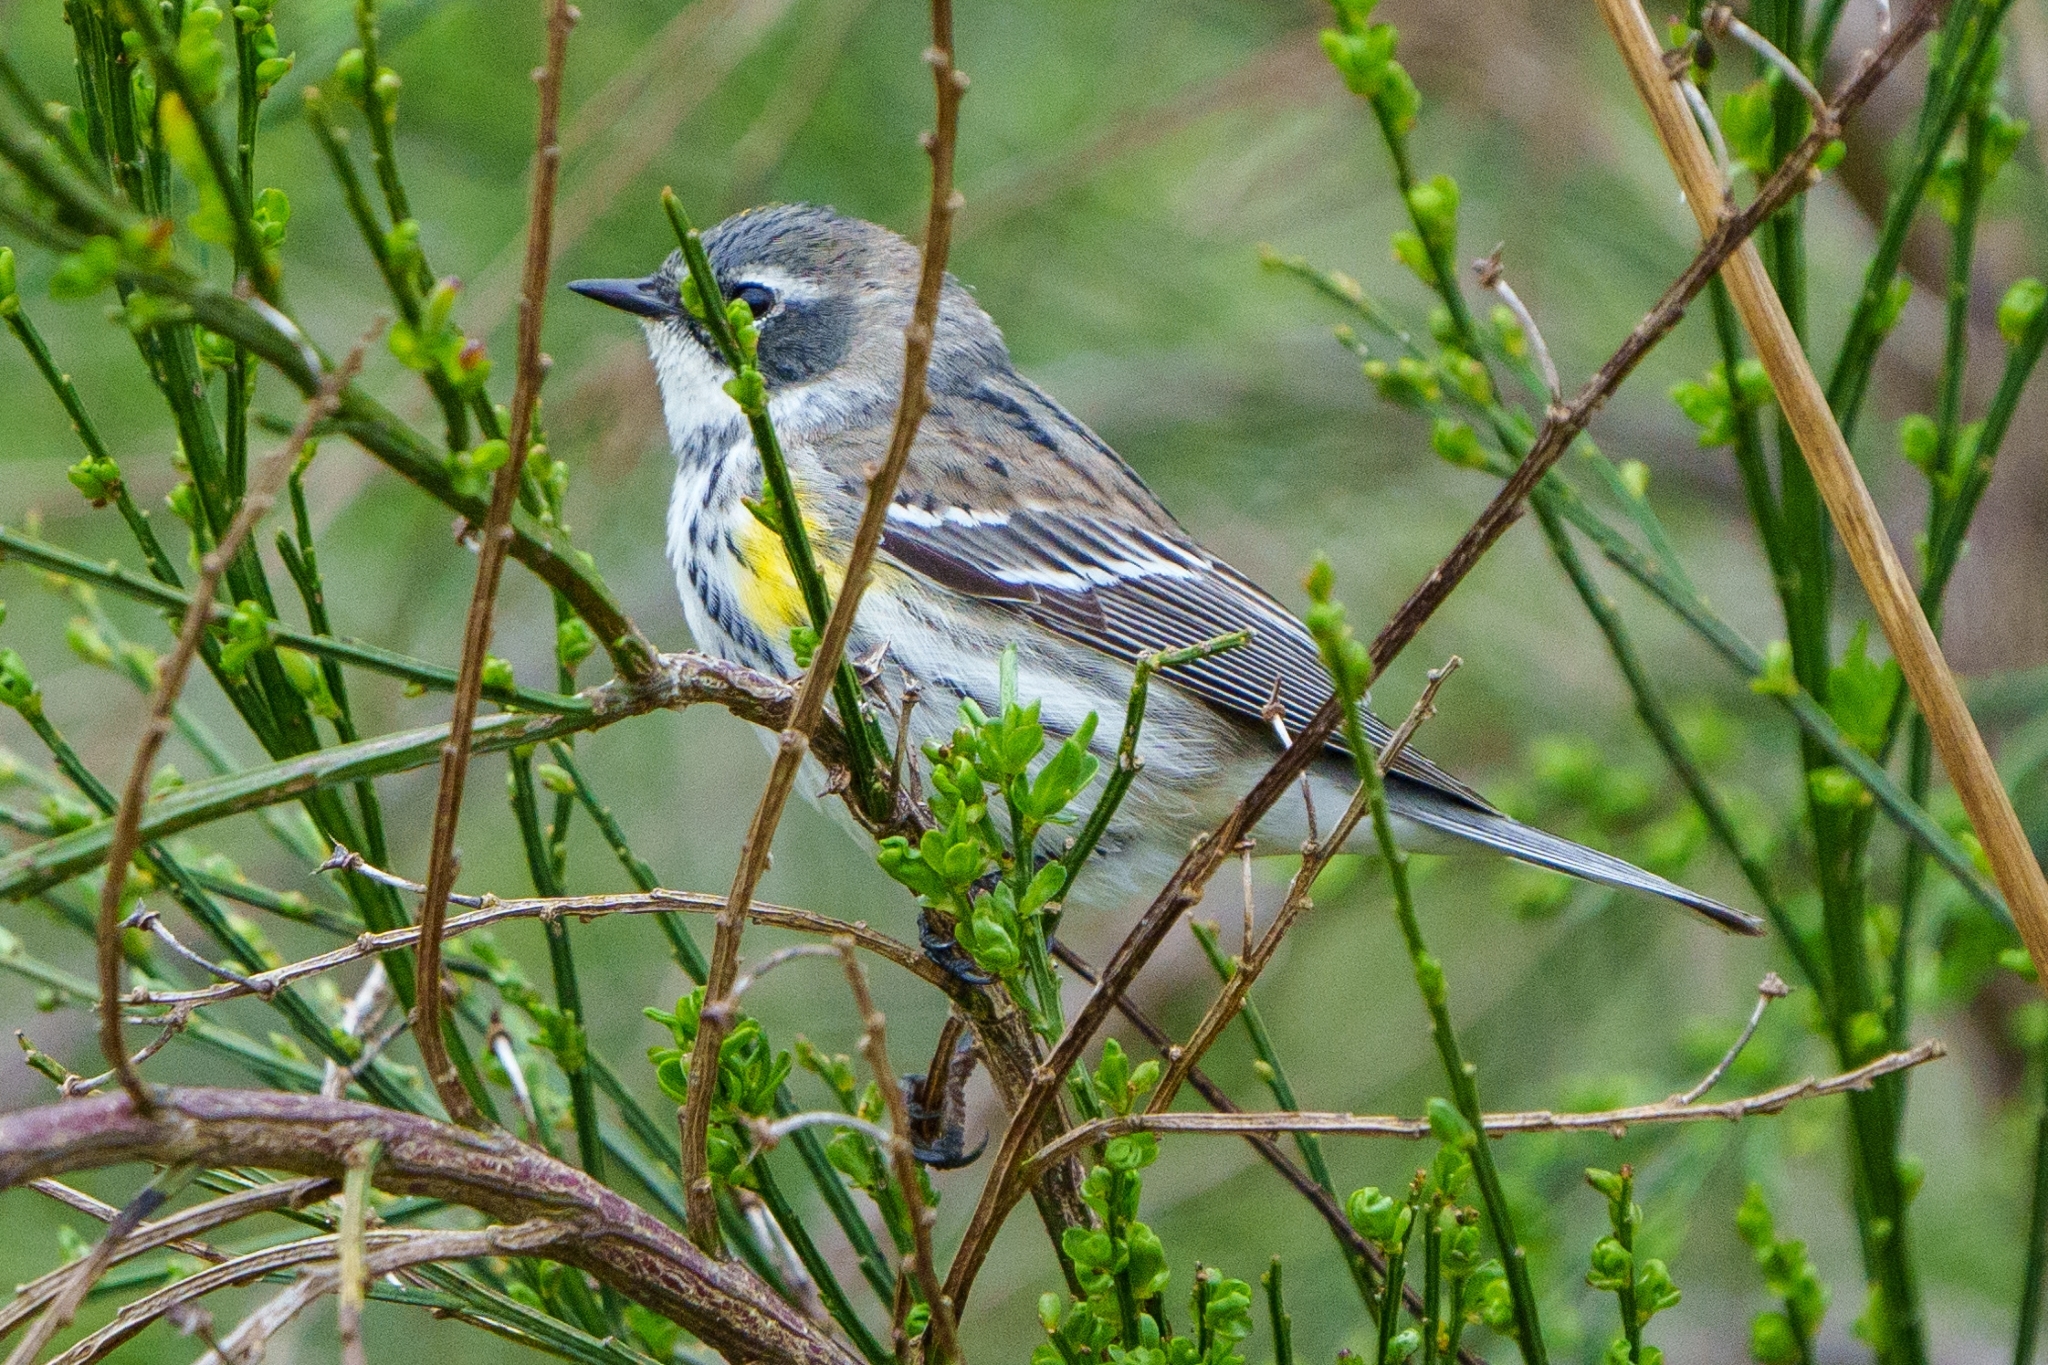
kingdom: Animalia
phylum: Chordata
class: Aves
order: Passeriformes
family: Parulidae
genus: Setophaga
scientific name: Setophaga coronata
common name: Myrtle warbler
